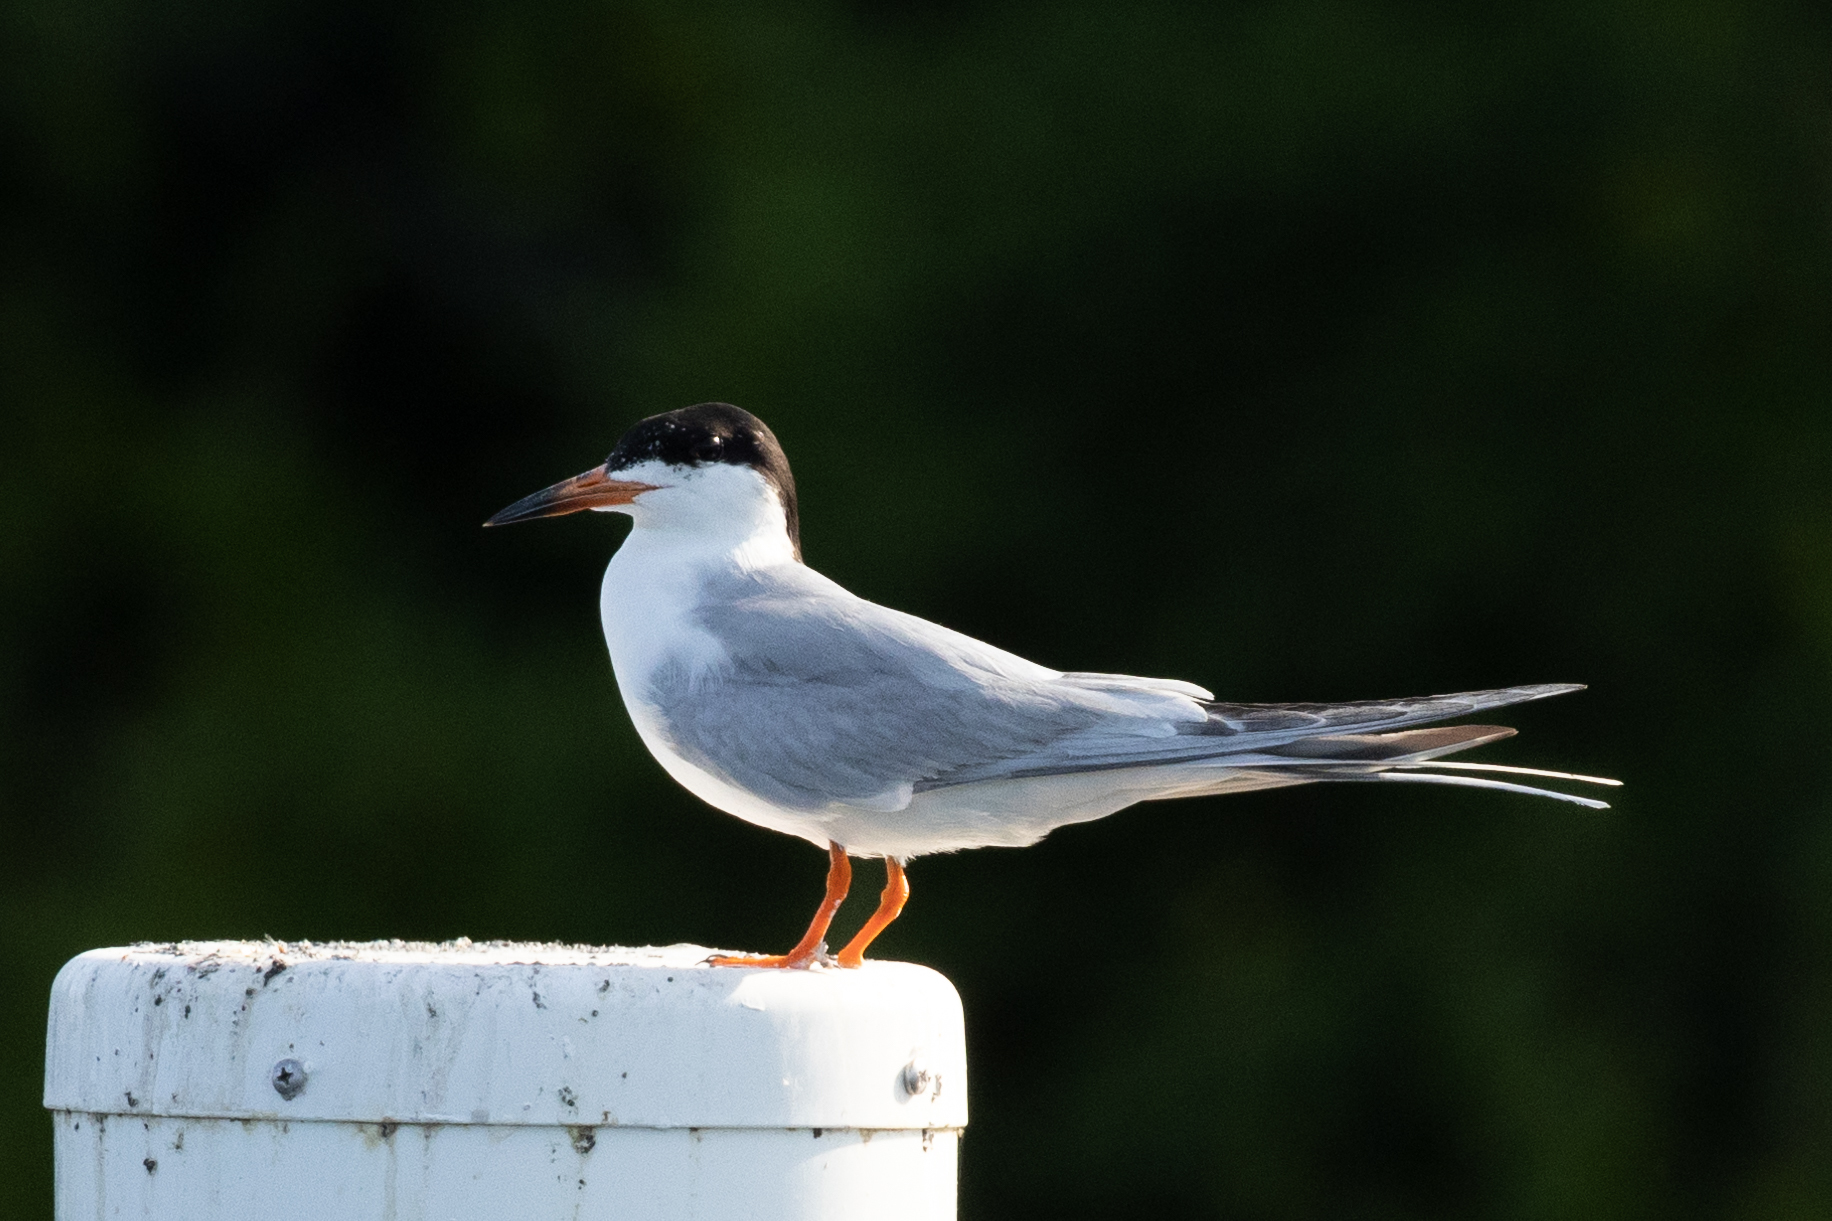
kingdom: Animalia
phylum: Chordata
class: Aves
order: Charadriiformes
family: Laridae
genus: Sterna
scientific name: Sterna forsteri
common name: Forster's tern
